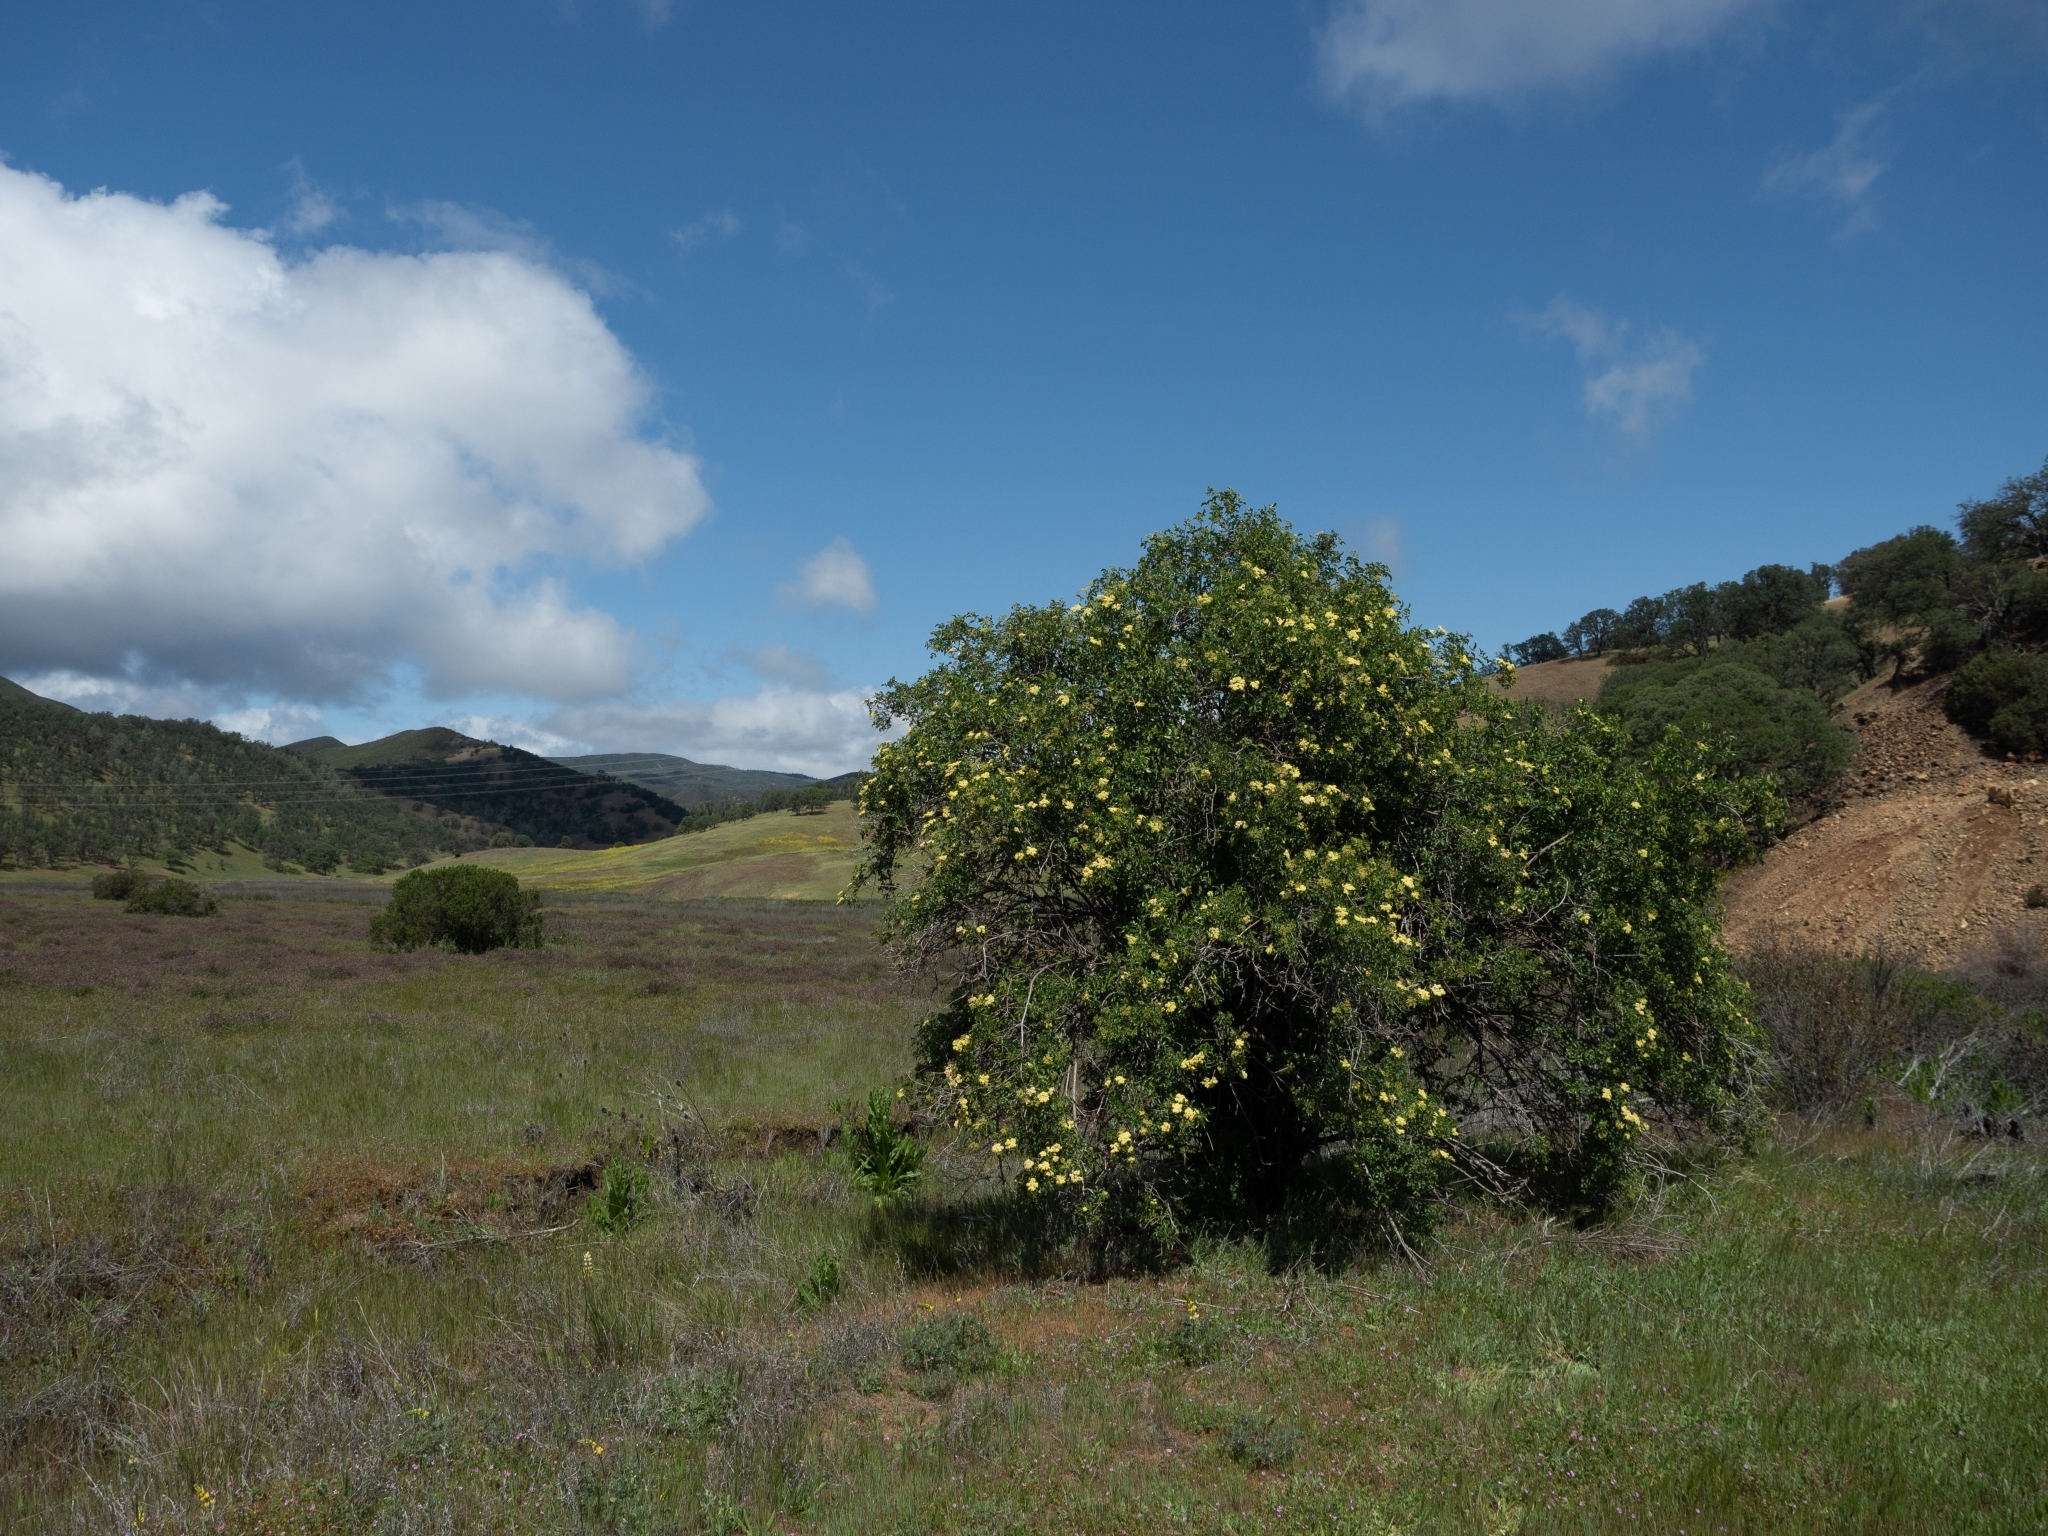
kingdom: Plantae
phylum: Tracheophyta
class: Magnoliopsida
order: Dipsacales
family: Viburnaceae
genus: Sambucus
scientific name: Sambucus cerulea
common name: Blue elder
